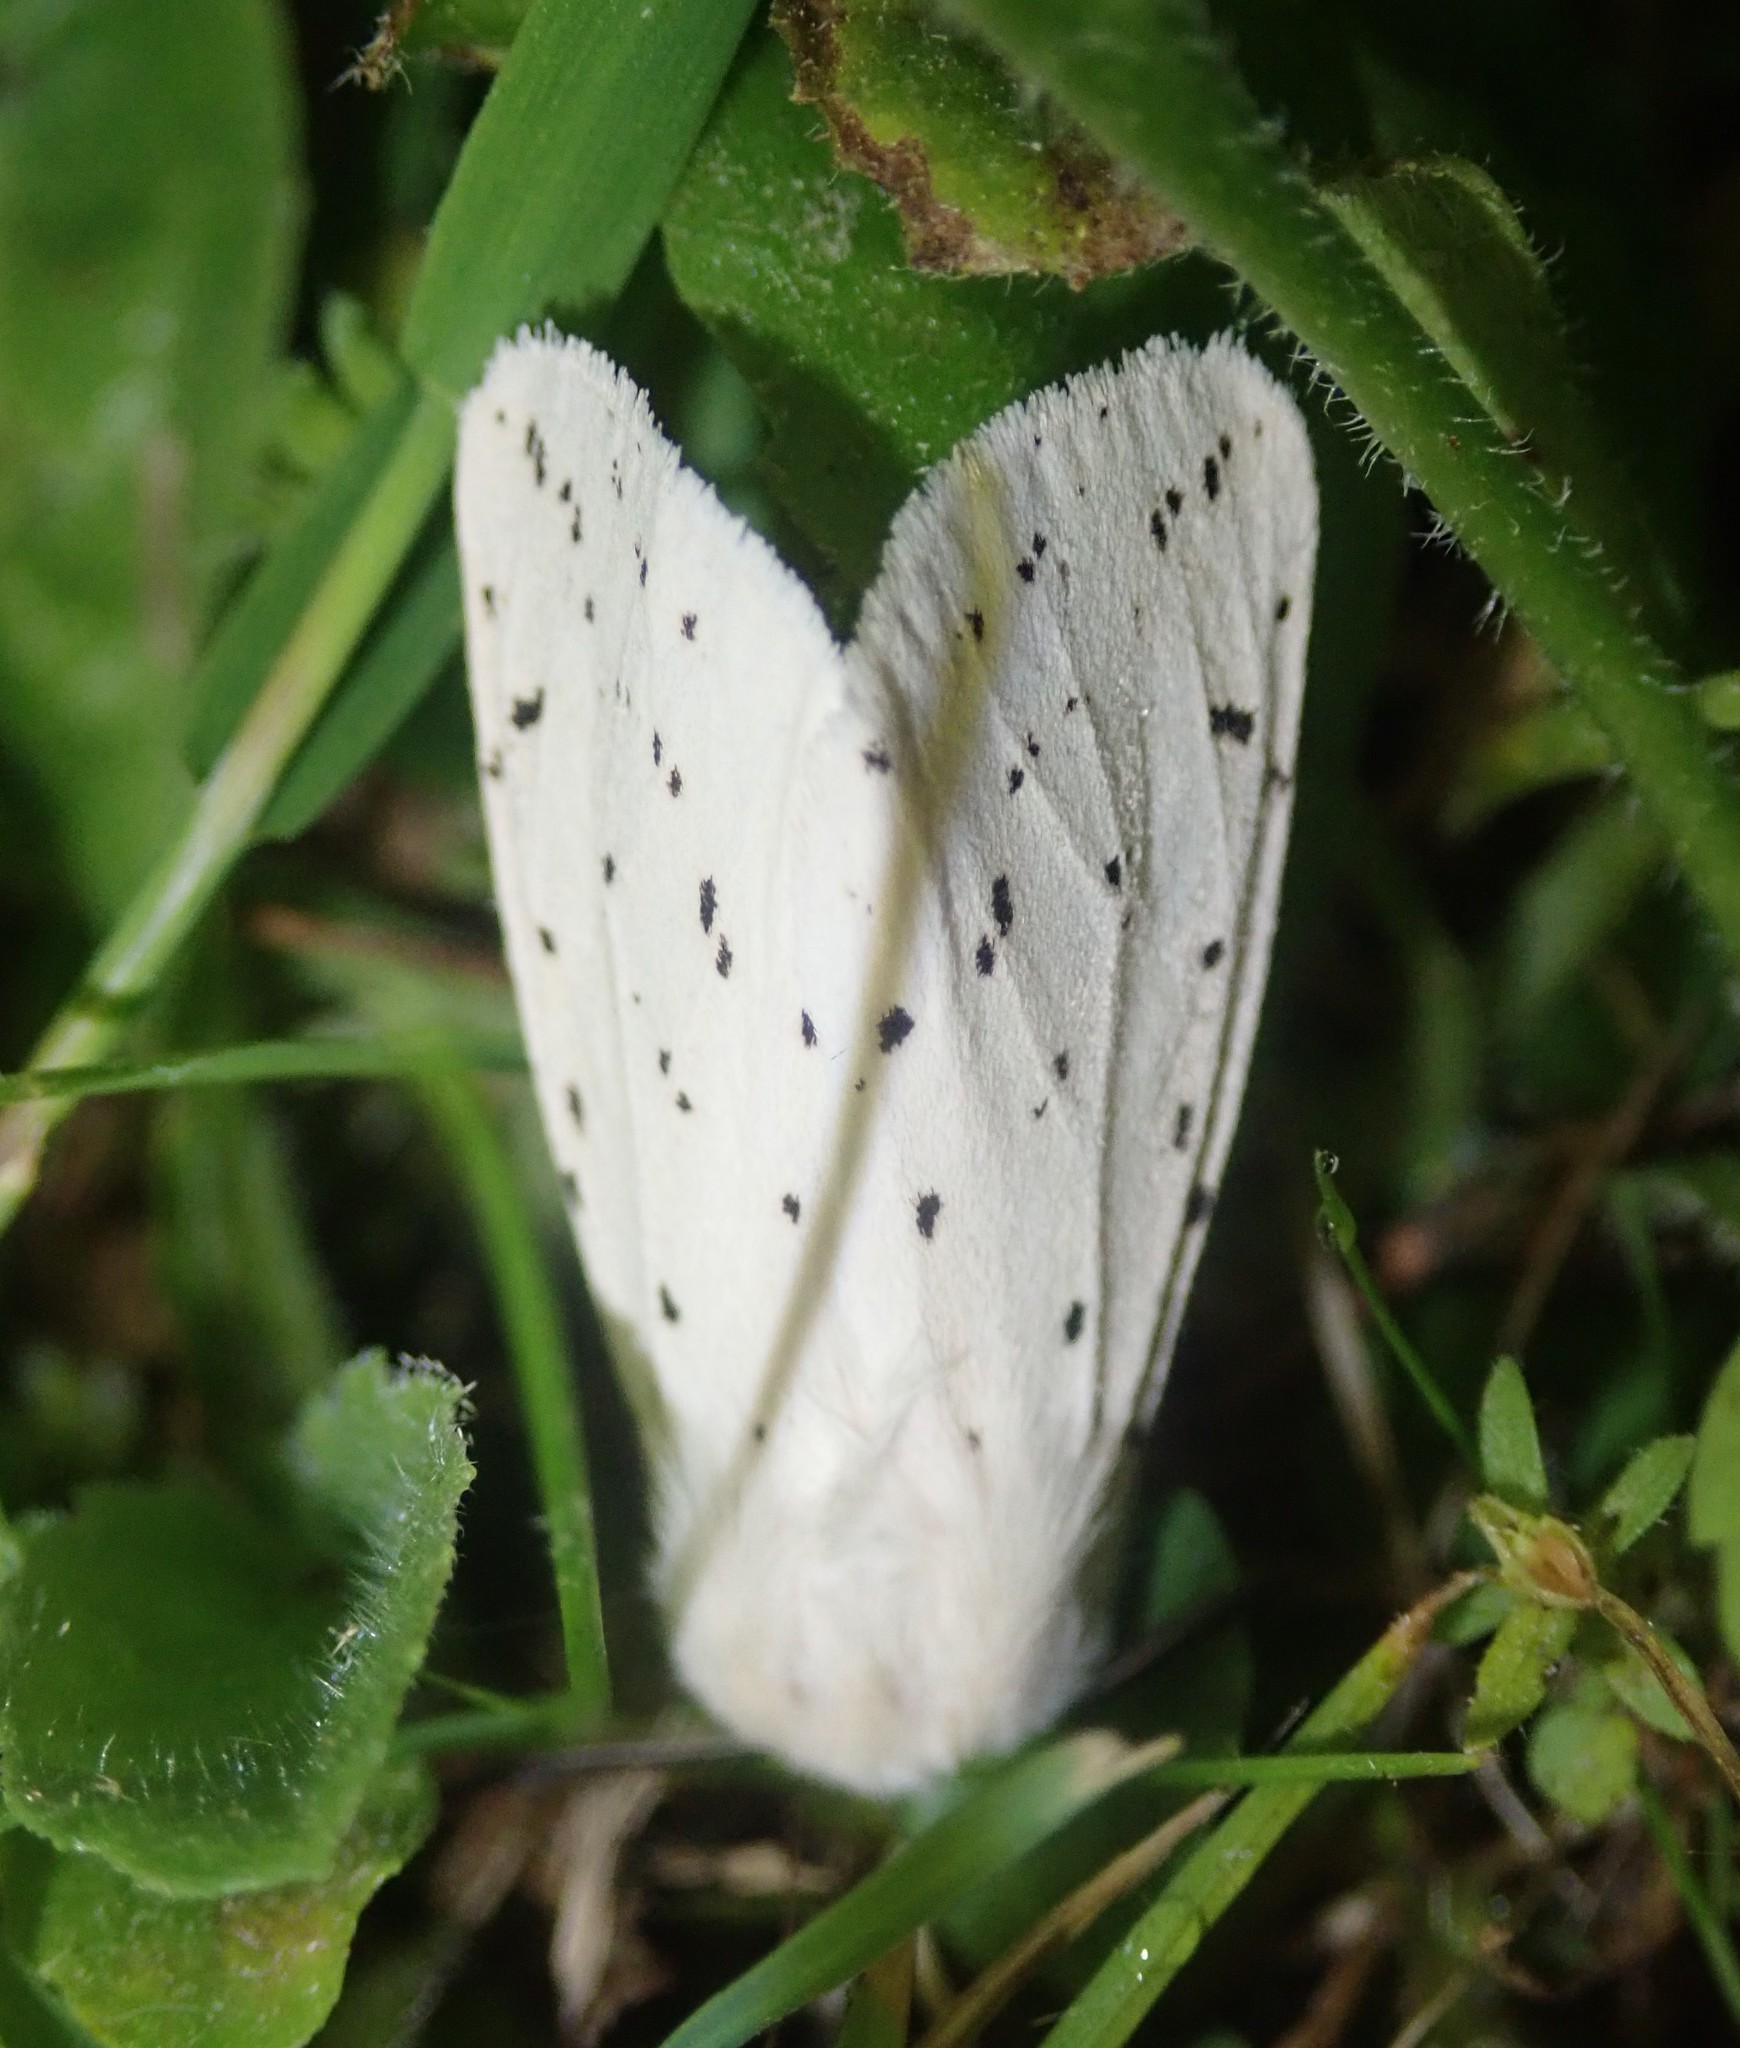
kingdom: Animalia
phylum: Arthropoda
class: Insecta
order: Lepidoptera
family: Erebidae
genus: Spilosoma
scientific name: Spilosoma lubricipeda
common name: White ermine
